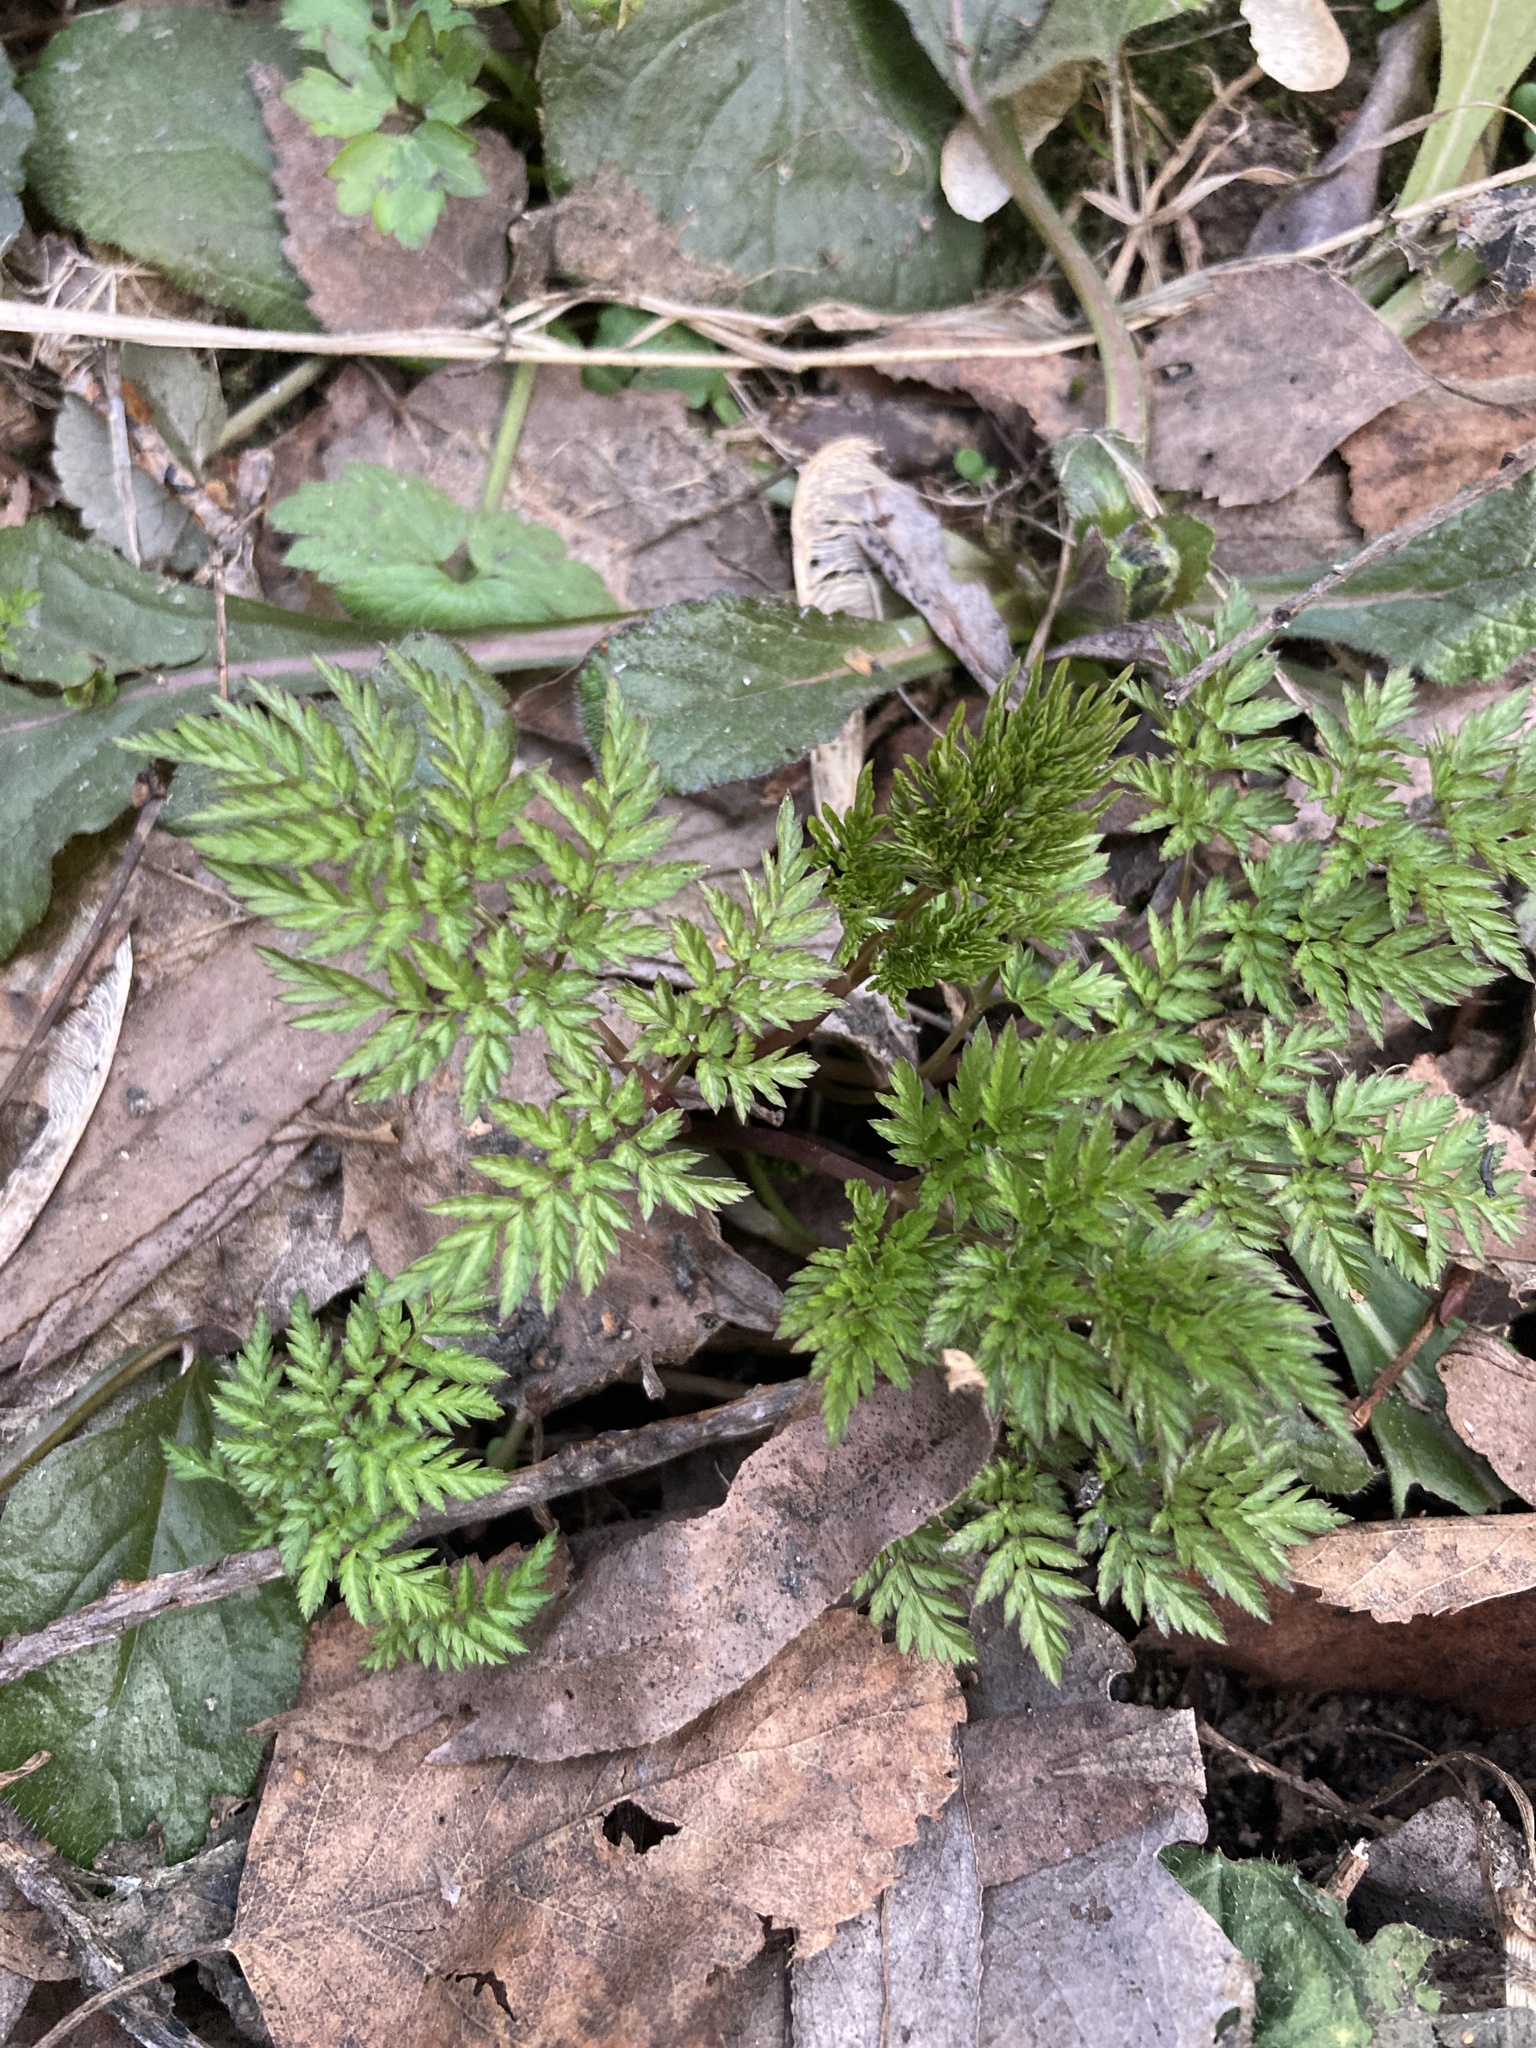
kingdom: Plantae
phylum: Tracheophyta
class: Magnoliopsida
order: Apiales
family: Apiaceae
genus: Anthriscus
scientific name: Anthriscus sylvestris
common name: Cow parsley
